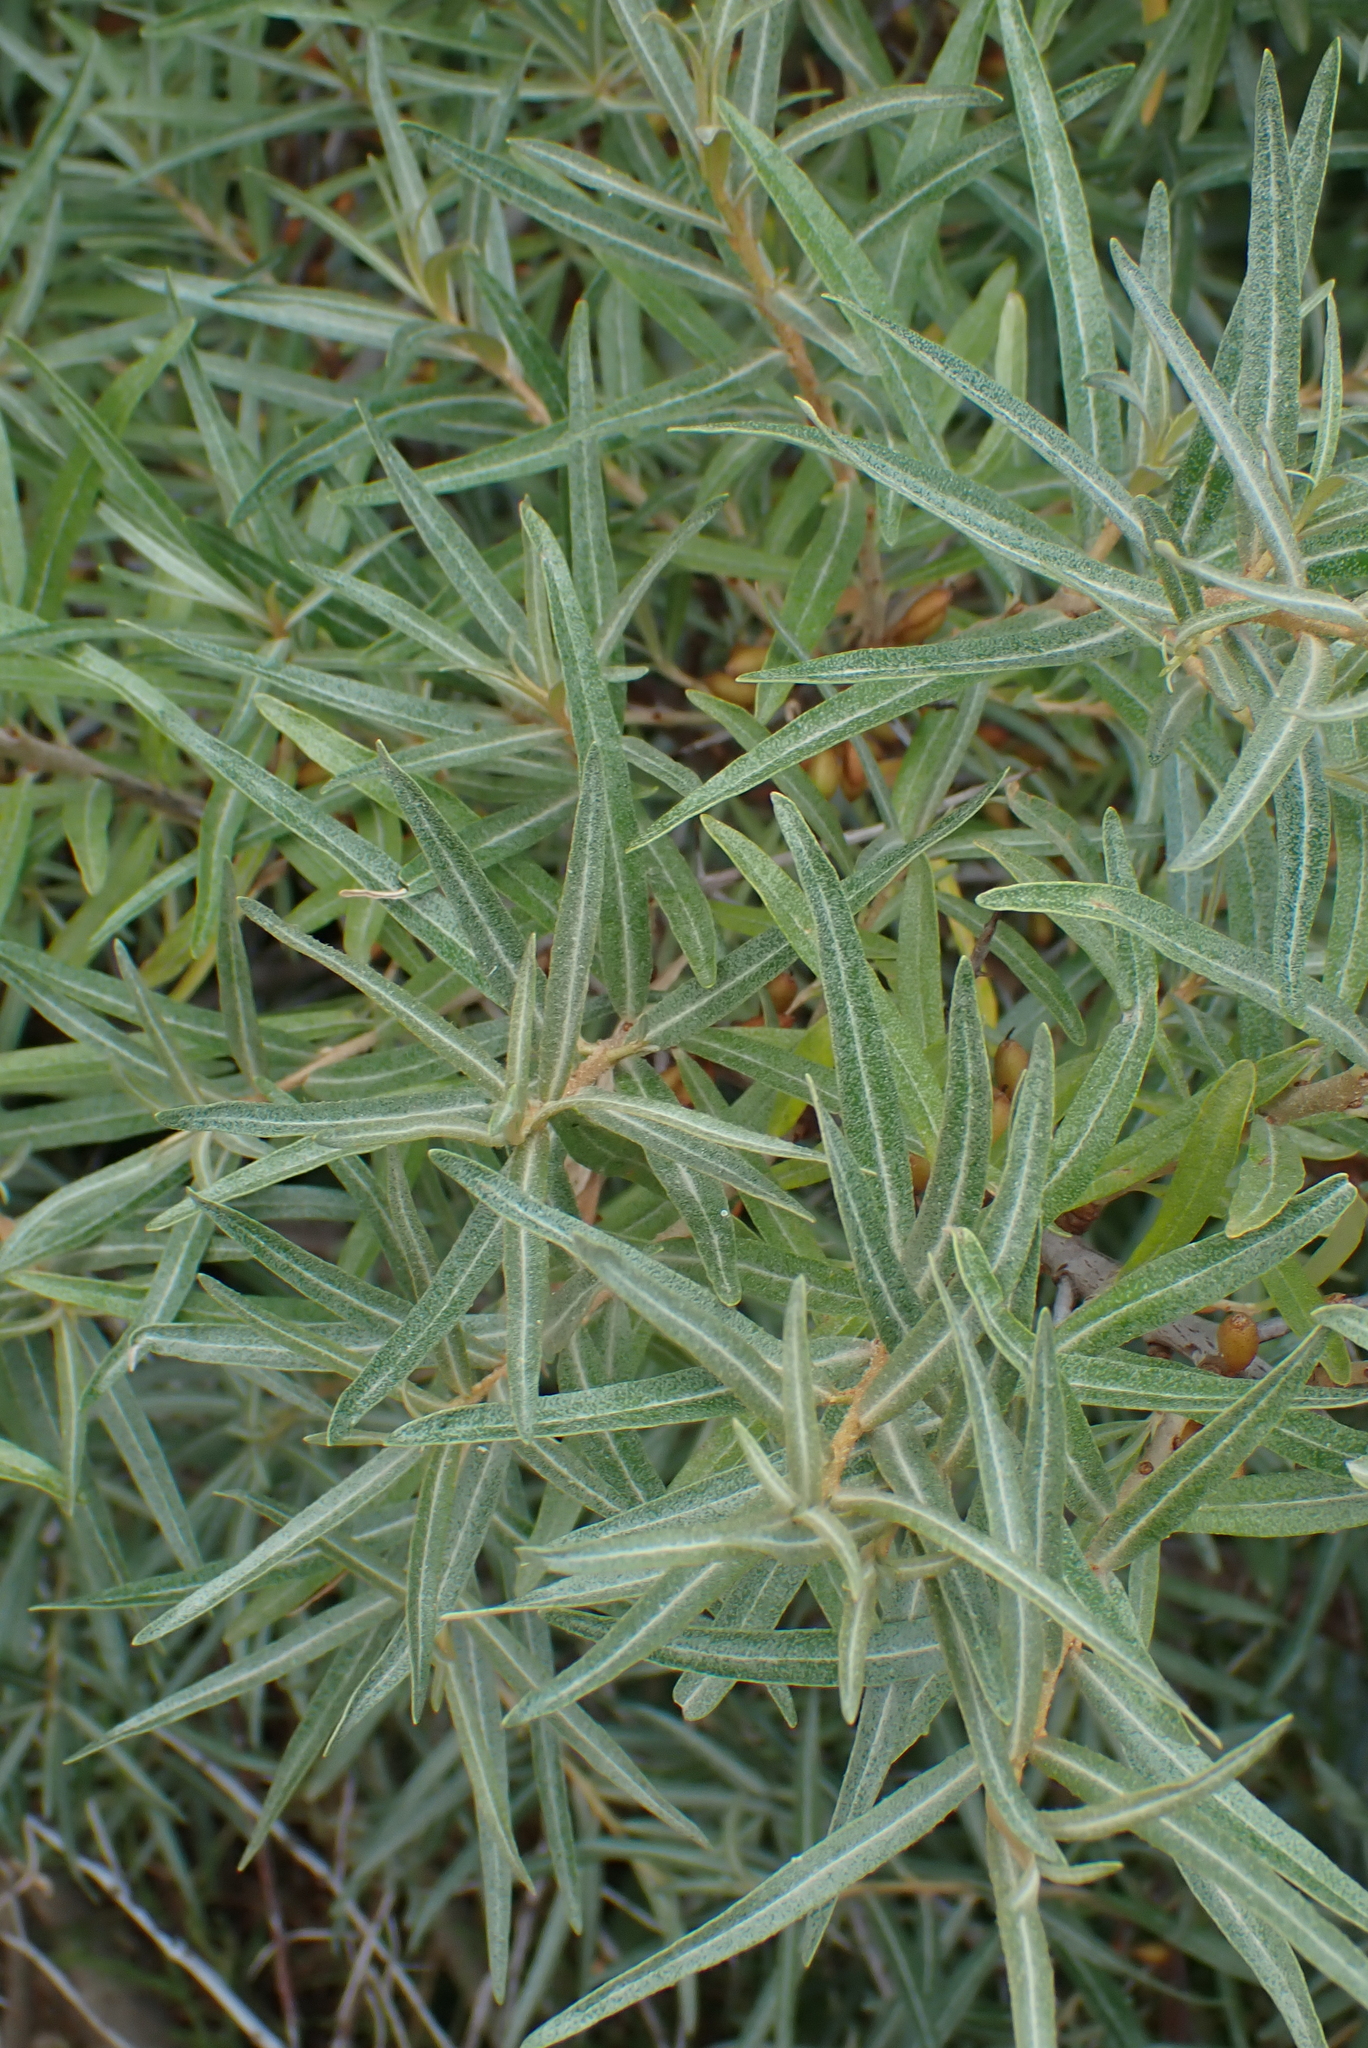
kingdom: Plantae
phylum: Tracheophyta
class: Magnoliopsida
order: Rosales
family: Elaeagnaceae
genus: Hippophae
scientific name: Hippophae rhamnoides
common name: Sea-buckthorn
